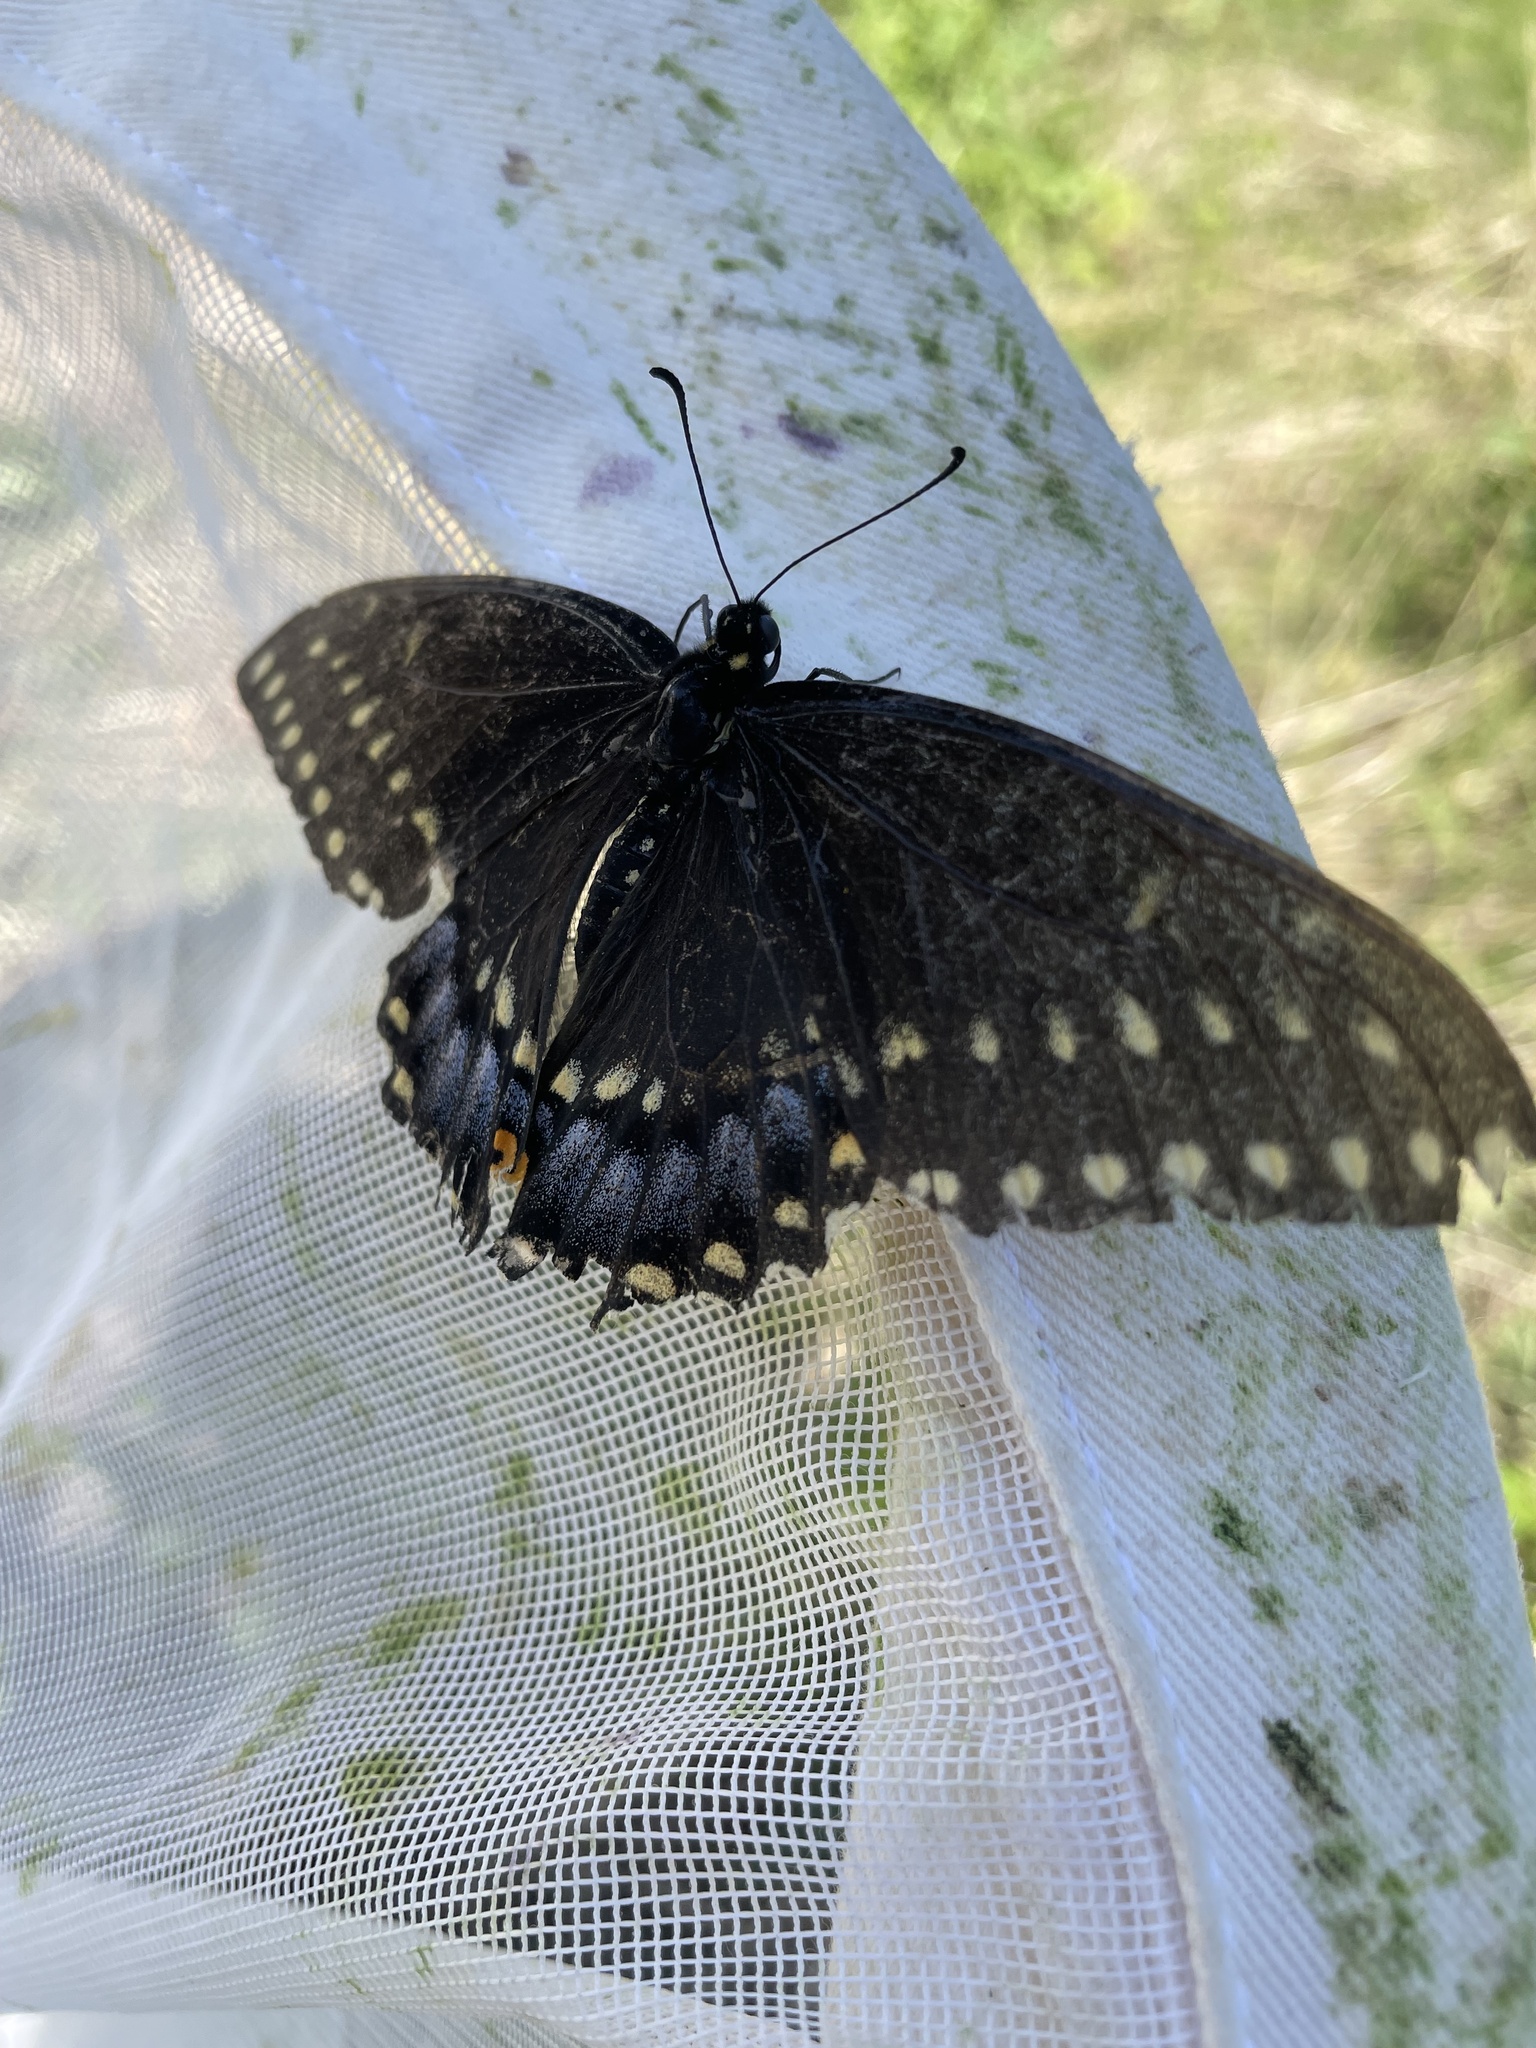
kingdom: Animalia
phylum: Arthropoda
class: Insecta
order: Lepidoptera
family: Papilionidae
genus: Papilio
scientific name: Papilio polyxenes
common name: Black swallowtail
